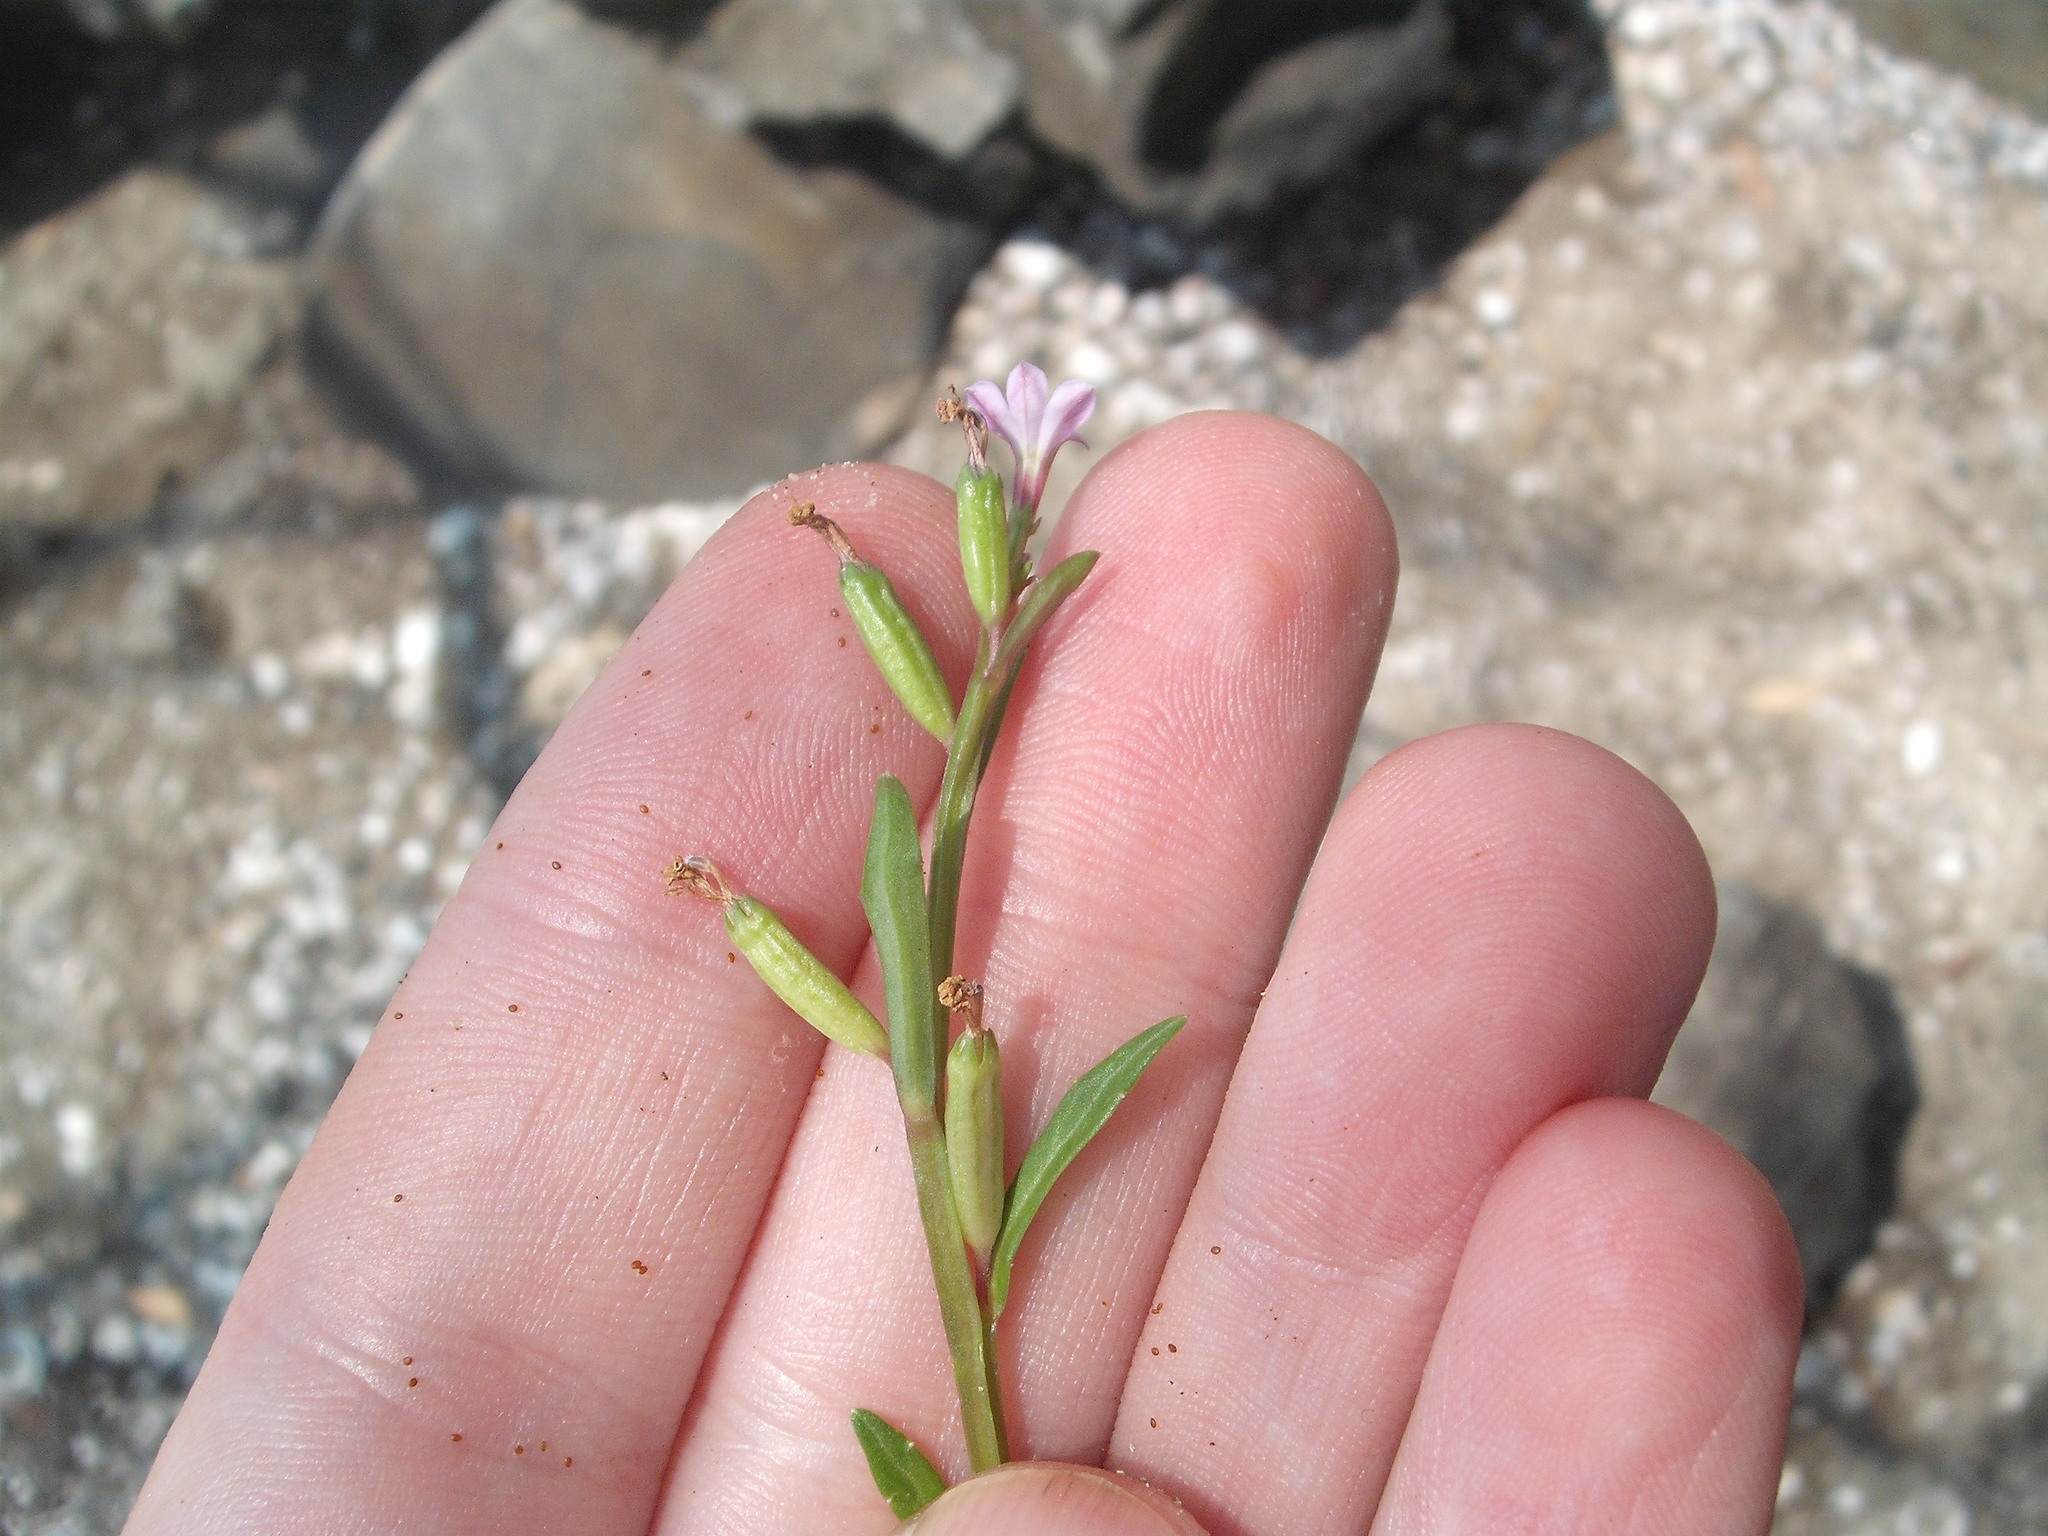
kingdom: Plantae
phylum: Tracheophyta
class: Magnoliopsida
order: Asterales
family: Campanulaceae
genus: Lobelia
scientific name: Lobelia anceps
